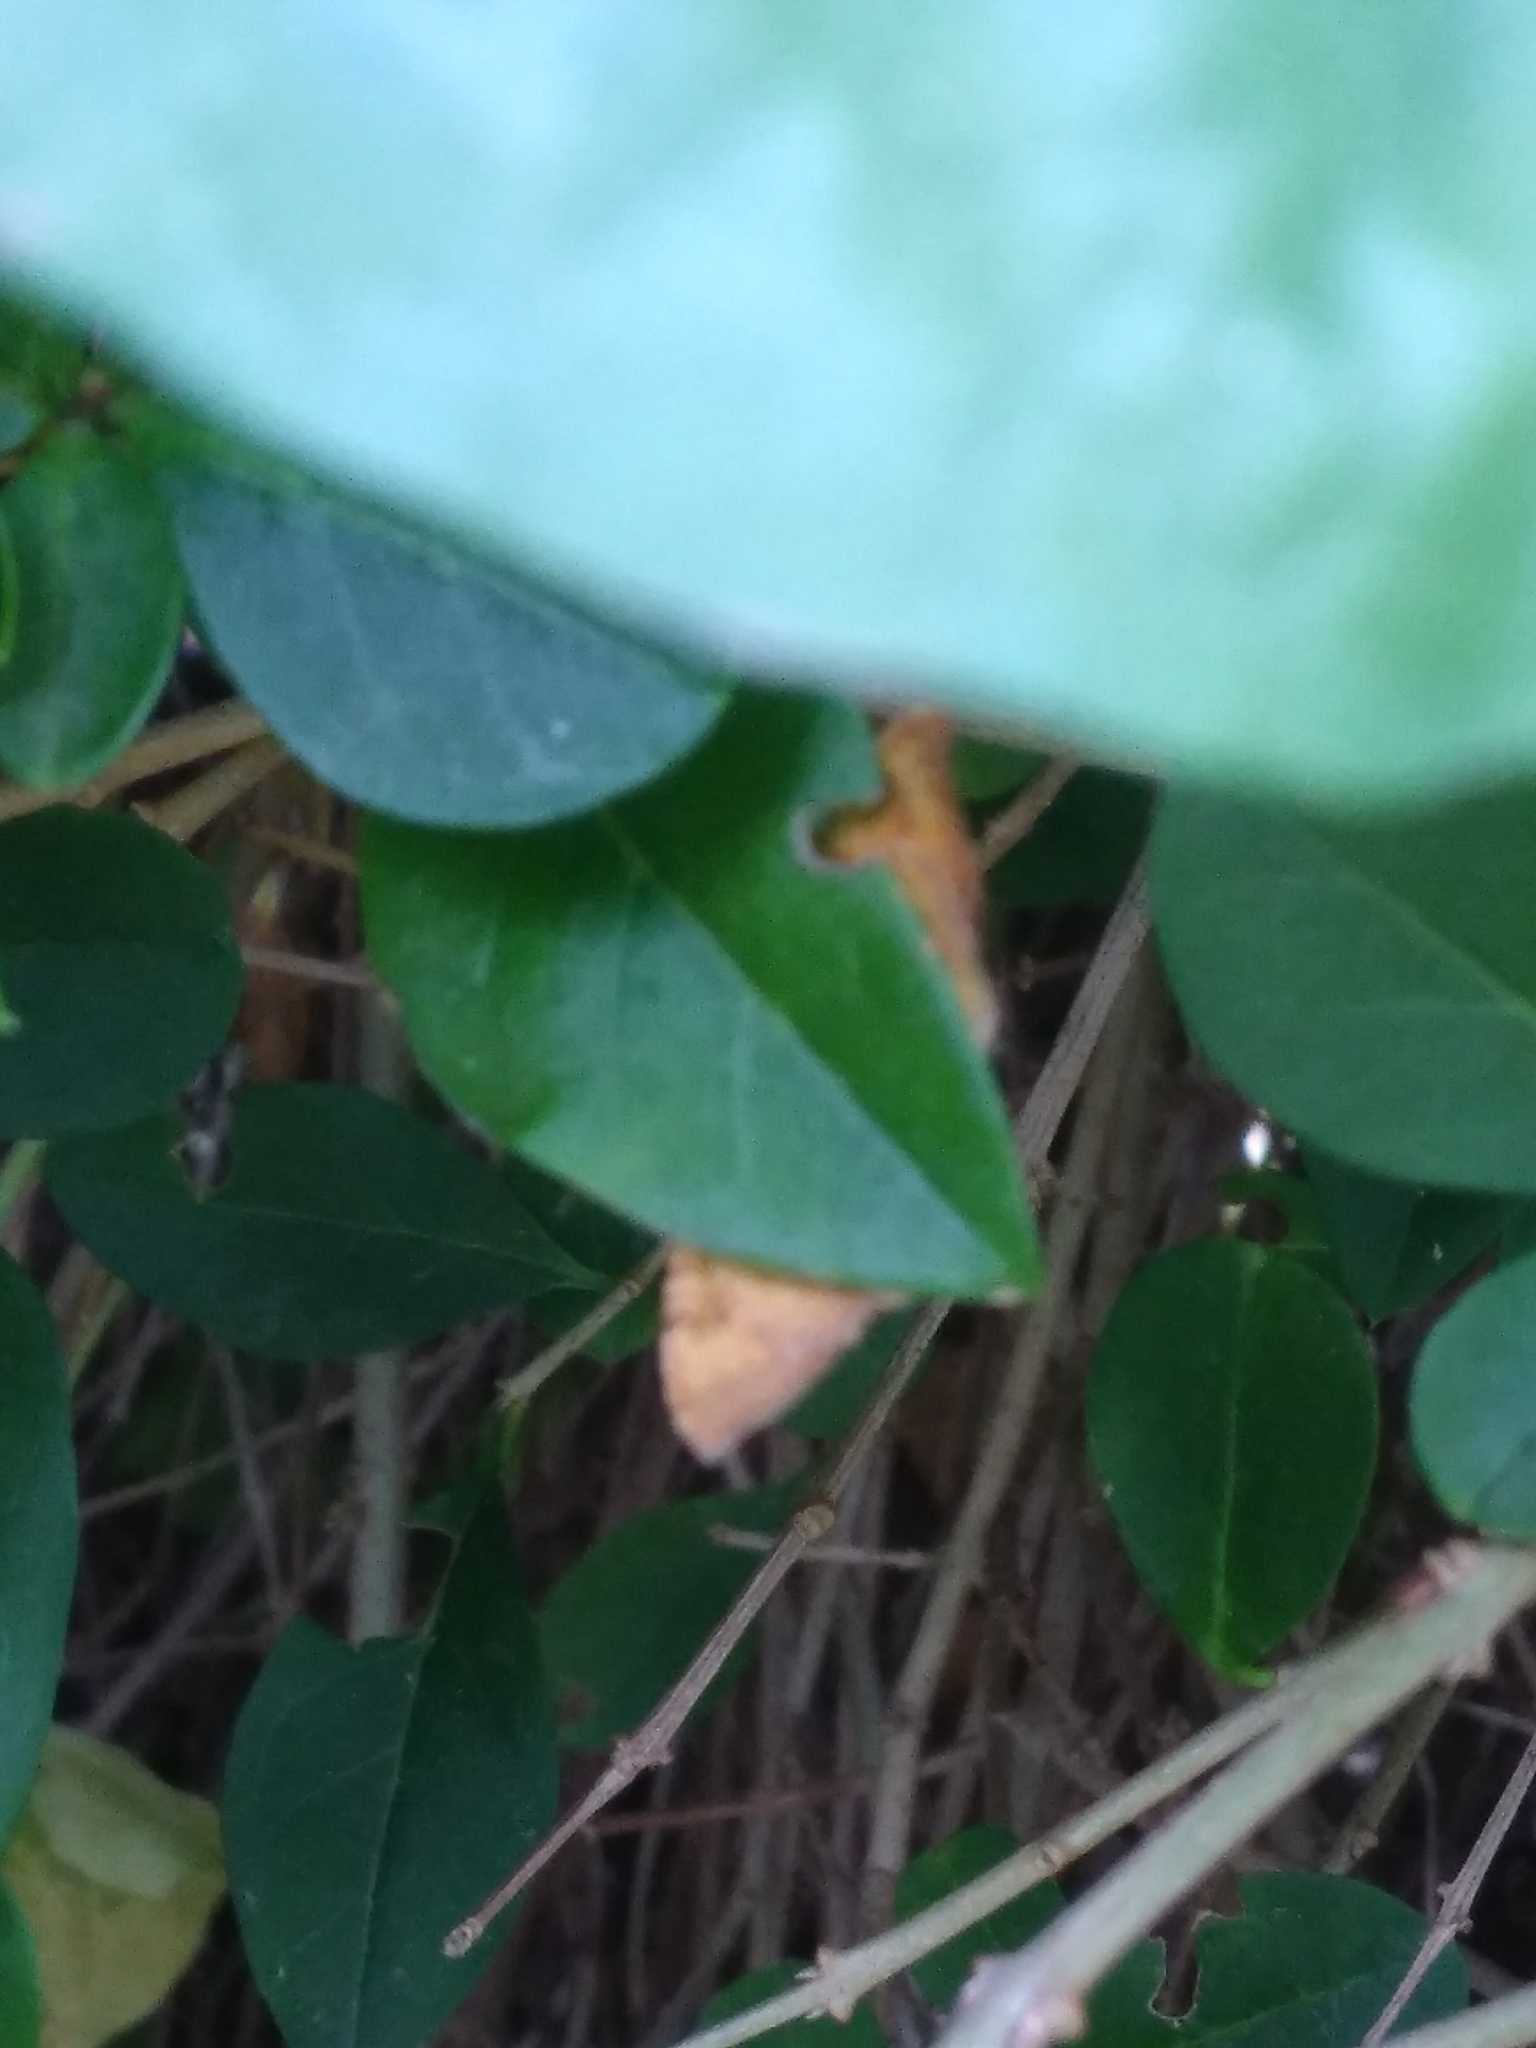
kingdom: Animalia
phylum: Arthropoda
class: Insecta
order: Lepidoptera
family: Geometridae
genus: Camptogramma
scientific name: Camptogramma bilineata
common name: Yellow shell
